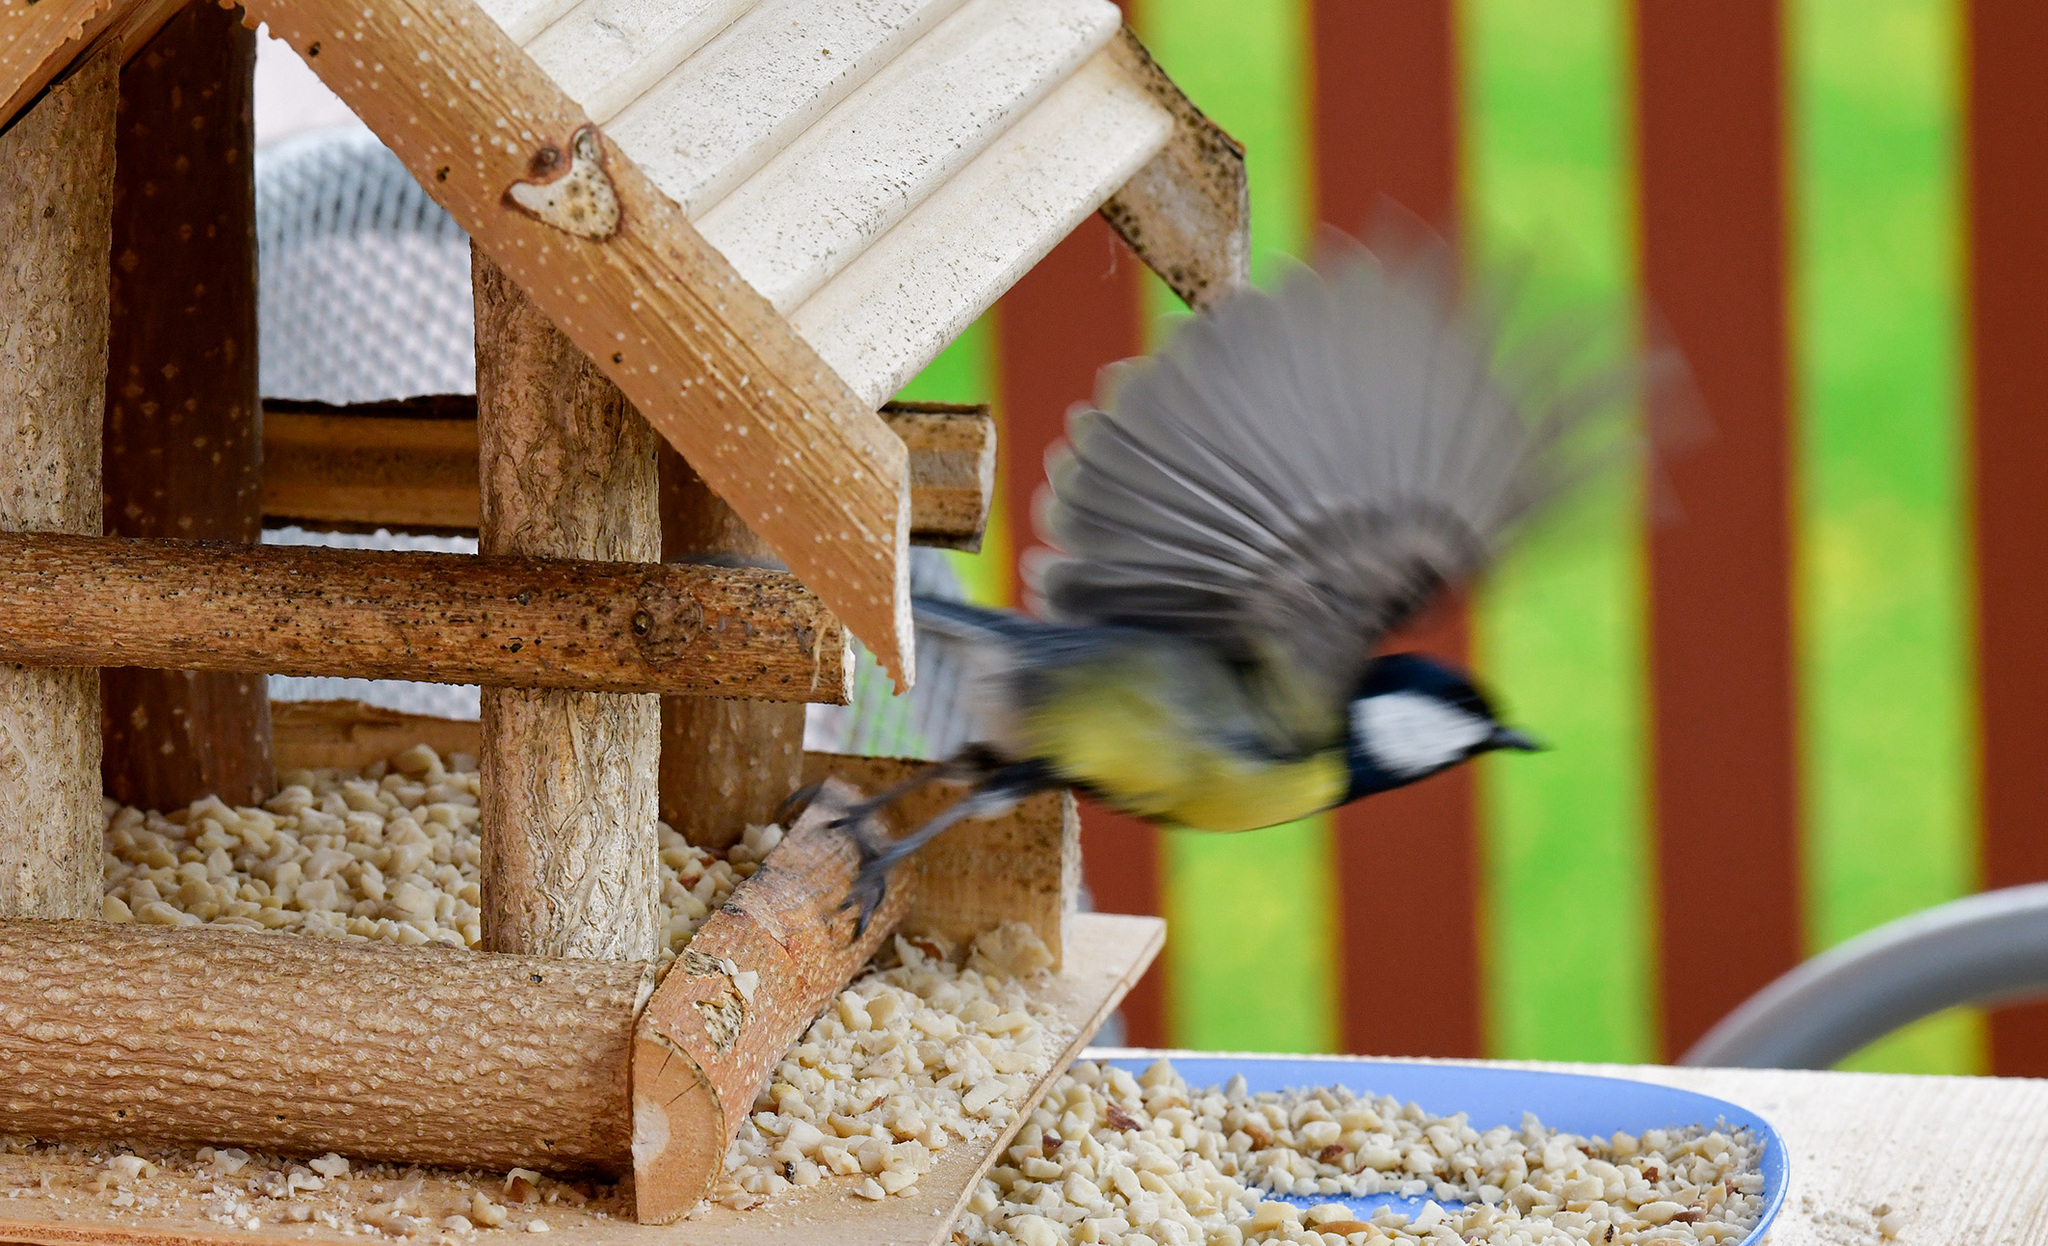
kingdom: Animalia
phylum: Chordata
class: Aves
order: Passeriformes
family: Paridae
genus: Parus
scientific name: Parus major
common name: Great tit
